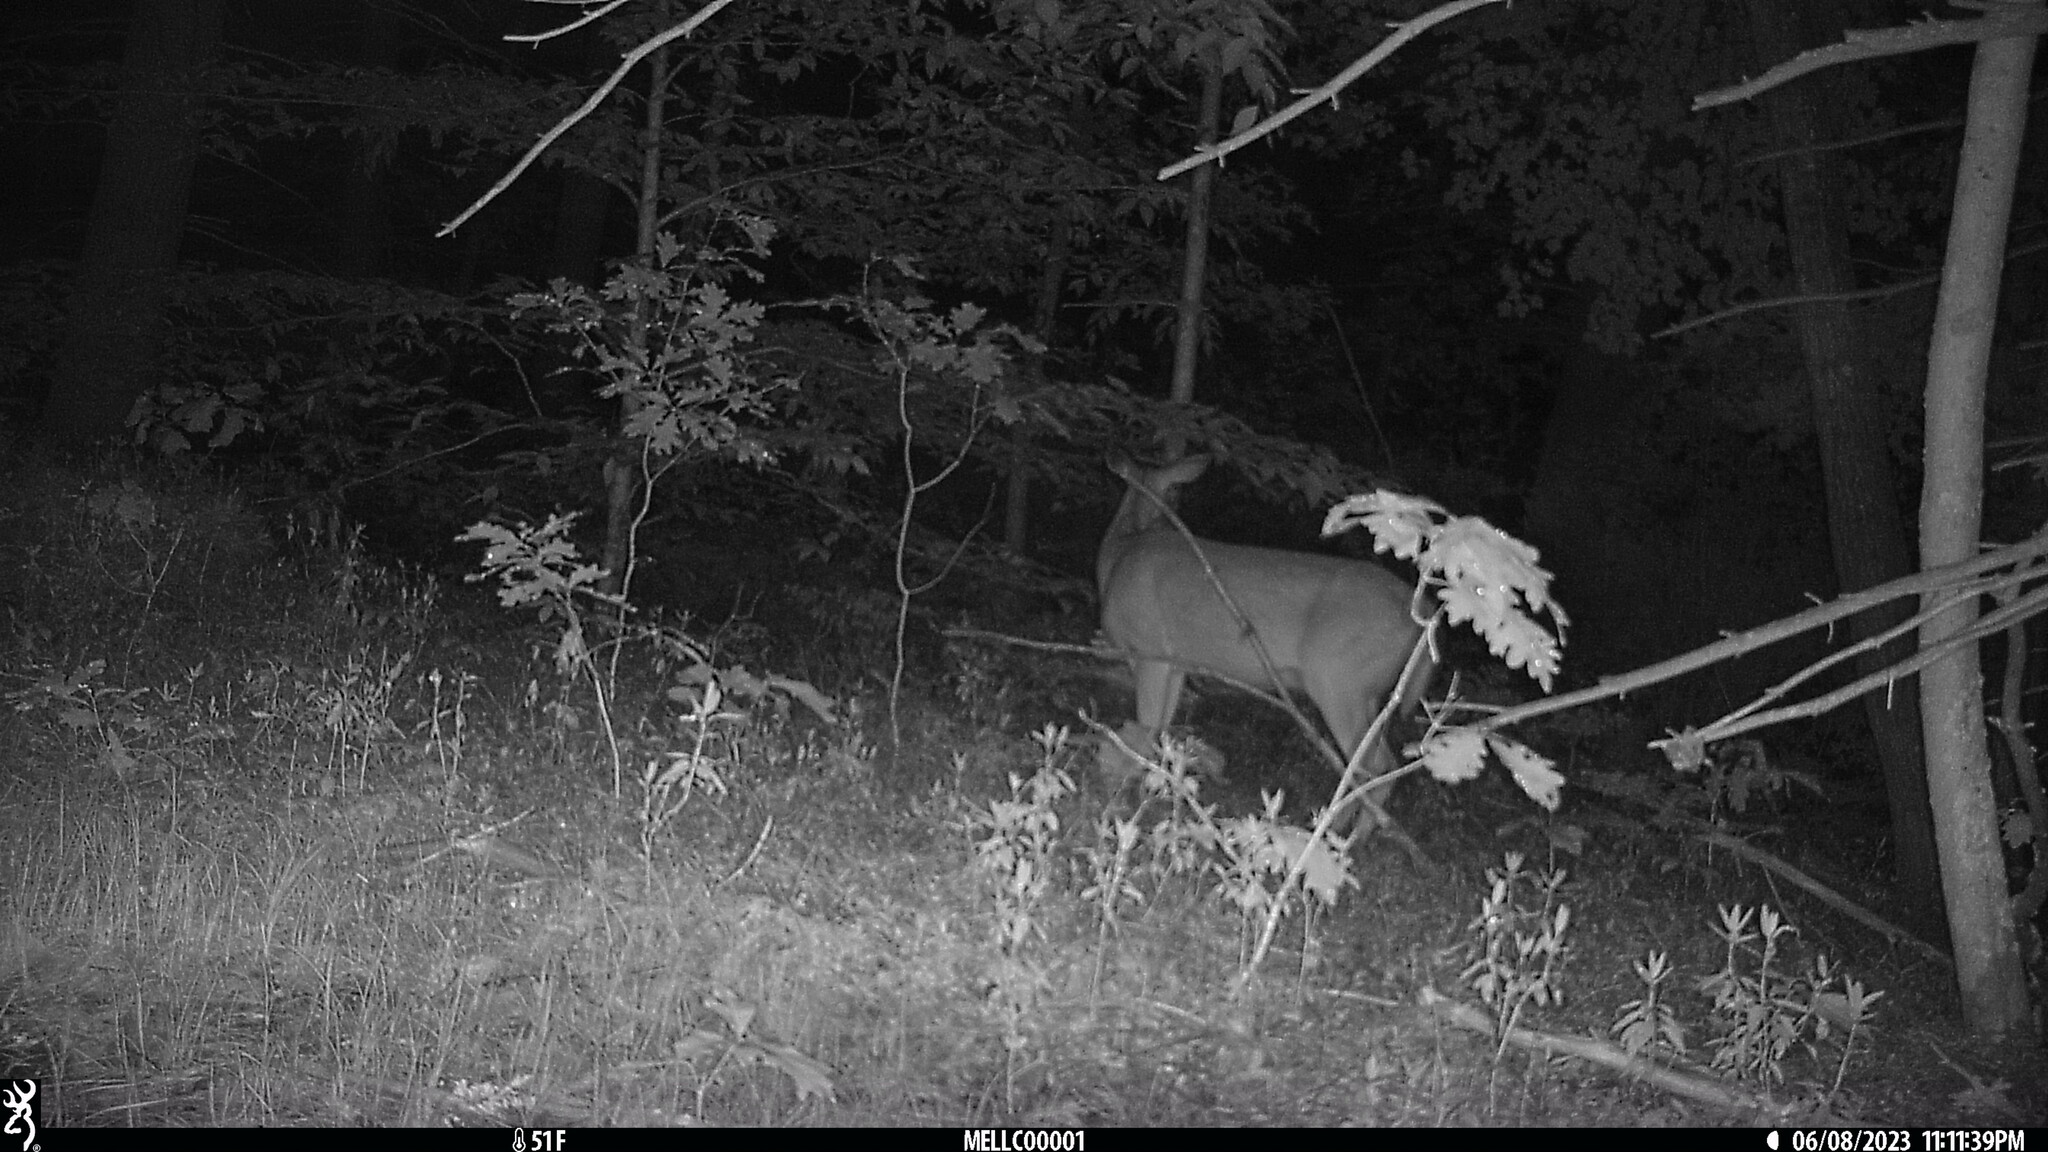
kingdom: Animalia
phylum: Chordata
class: Mammalia
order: Artiodactyla
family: Cervidae
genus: Odocoileus
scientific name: Odocoileus virginianus
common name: White-tailed deer
